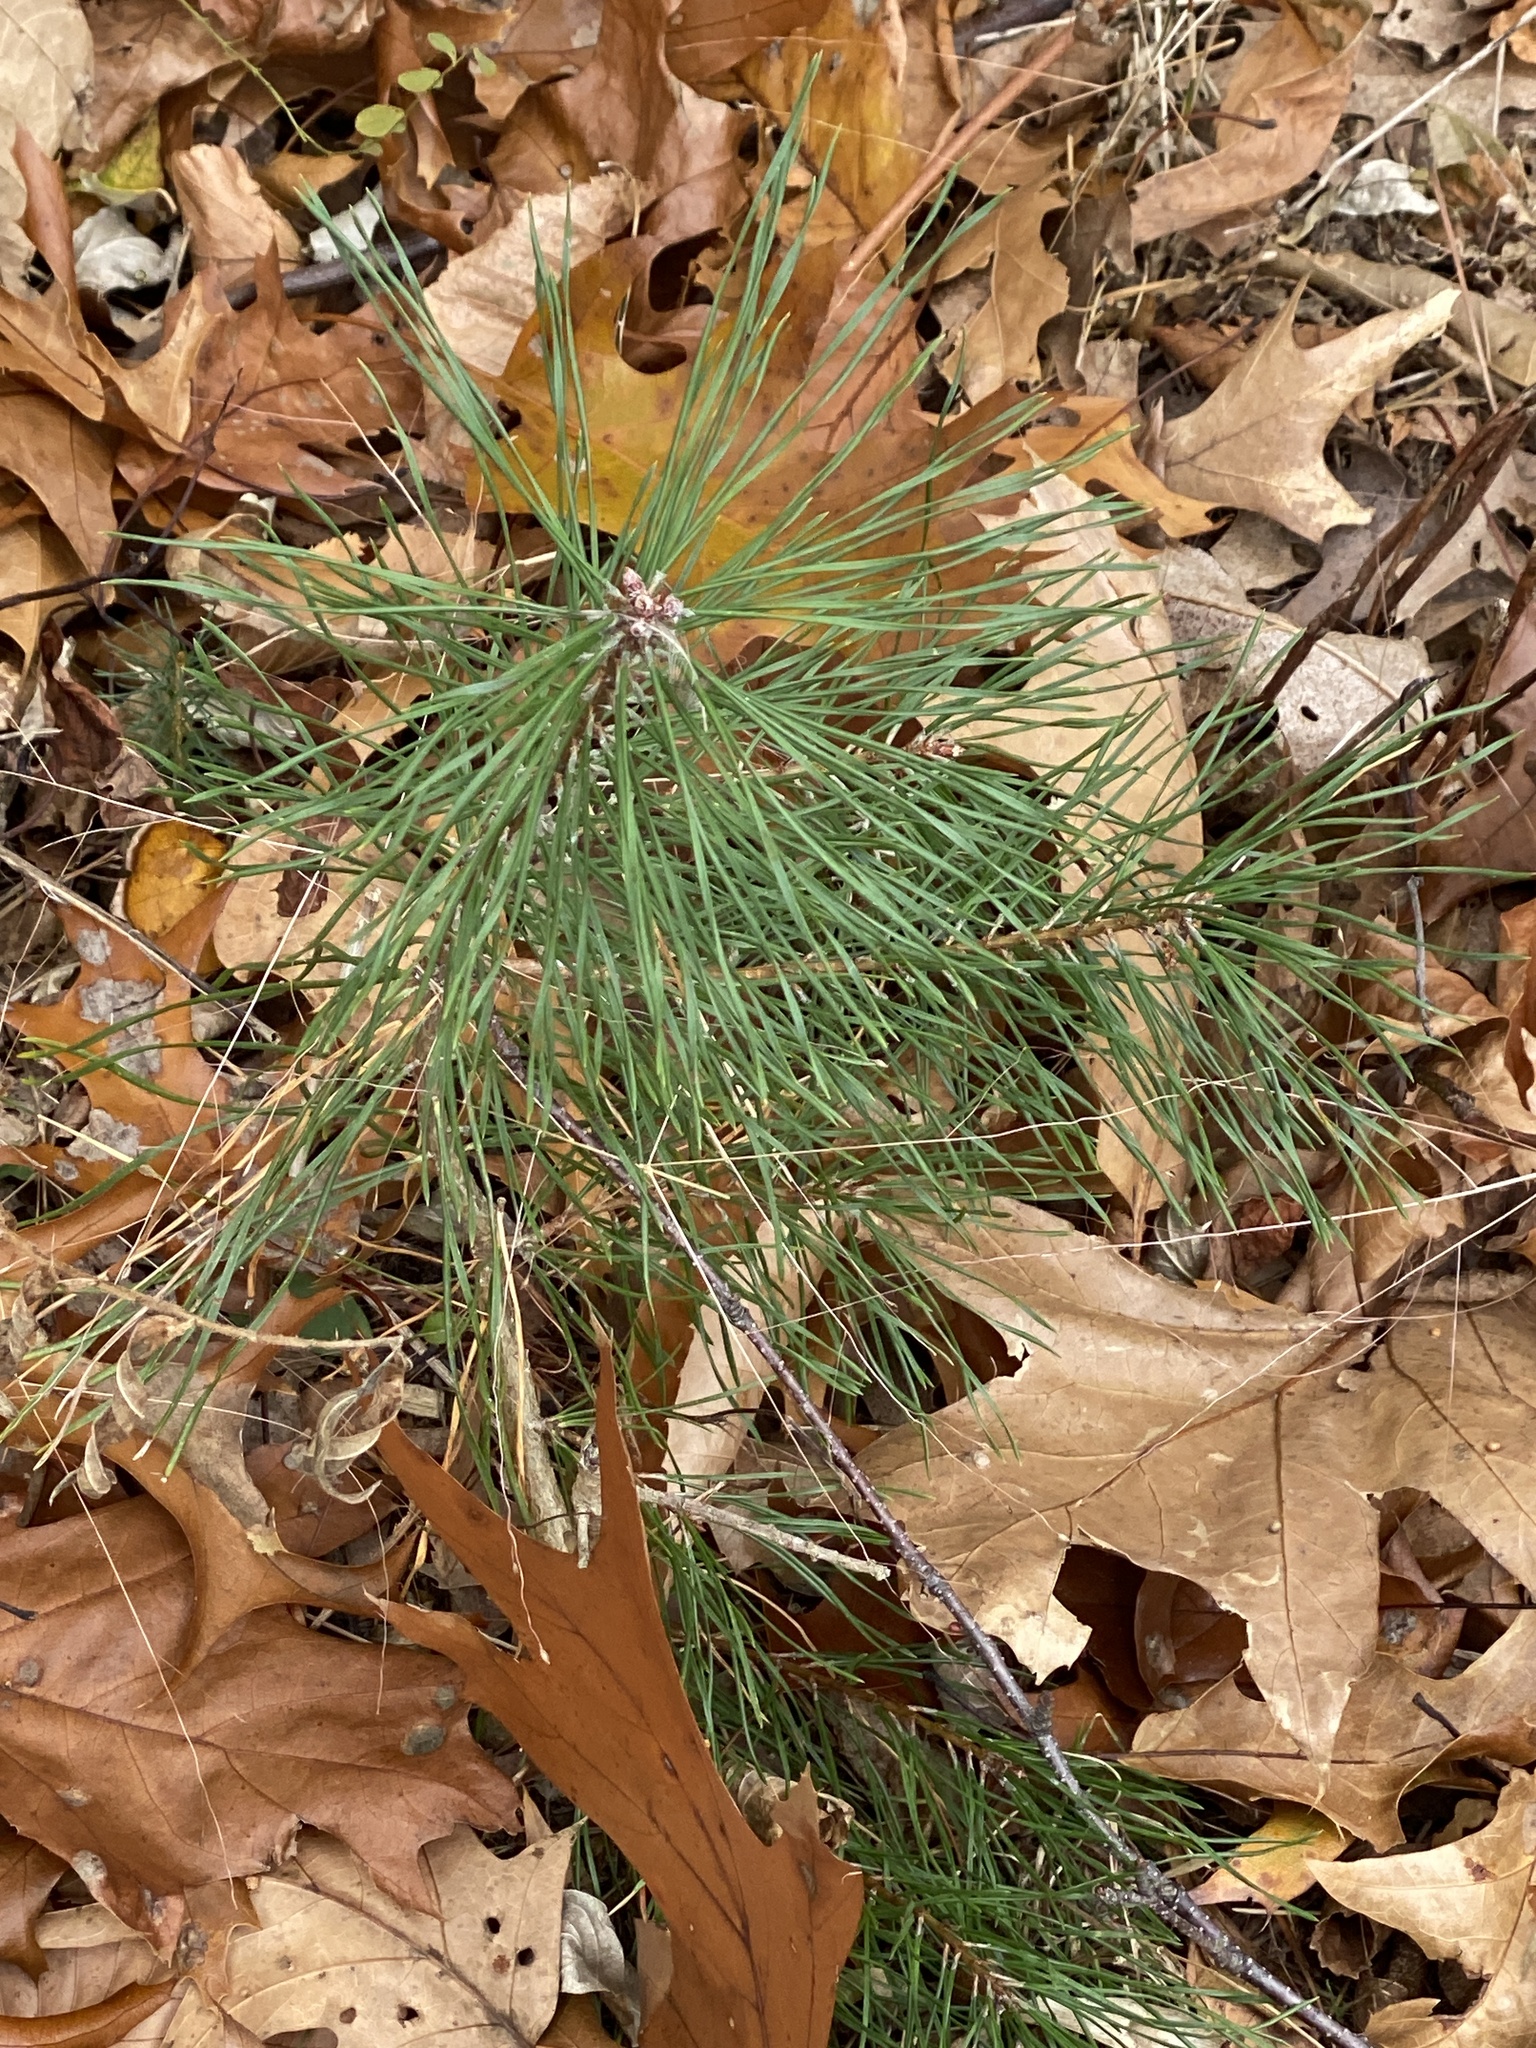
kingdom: Plantae
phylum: Tracheophyta
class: Pinopsida
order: Pinales
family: Pinaceae
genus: Pinus
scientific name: Pinus sylvestris
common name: Scots pine
